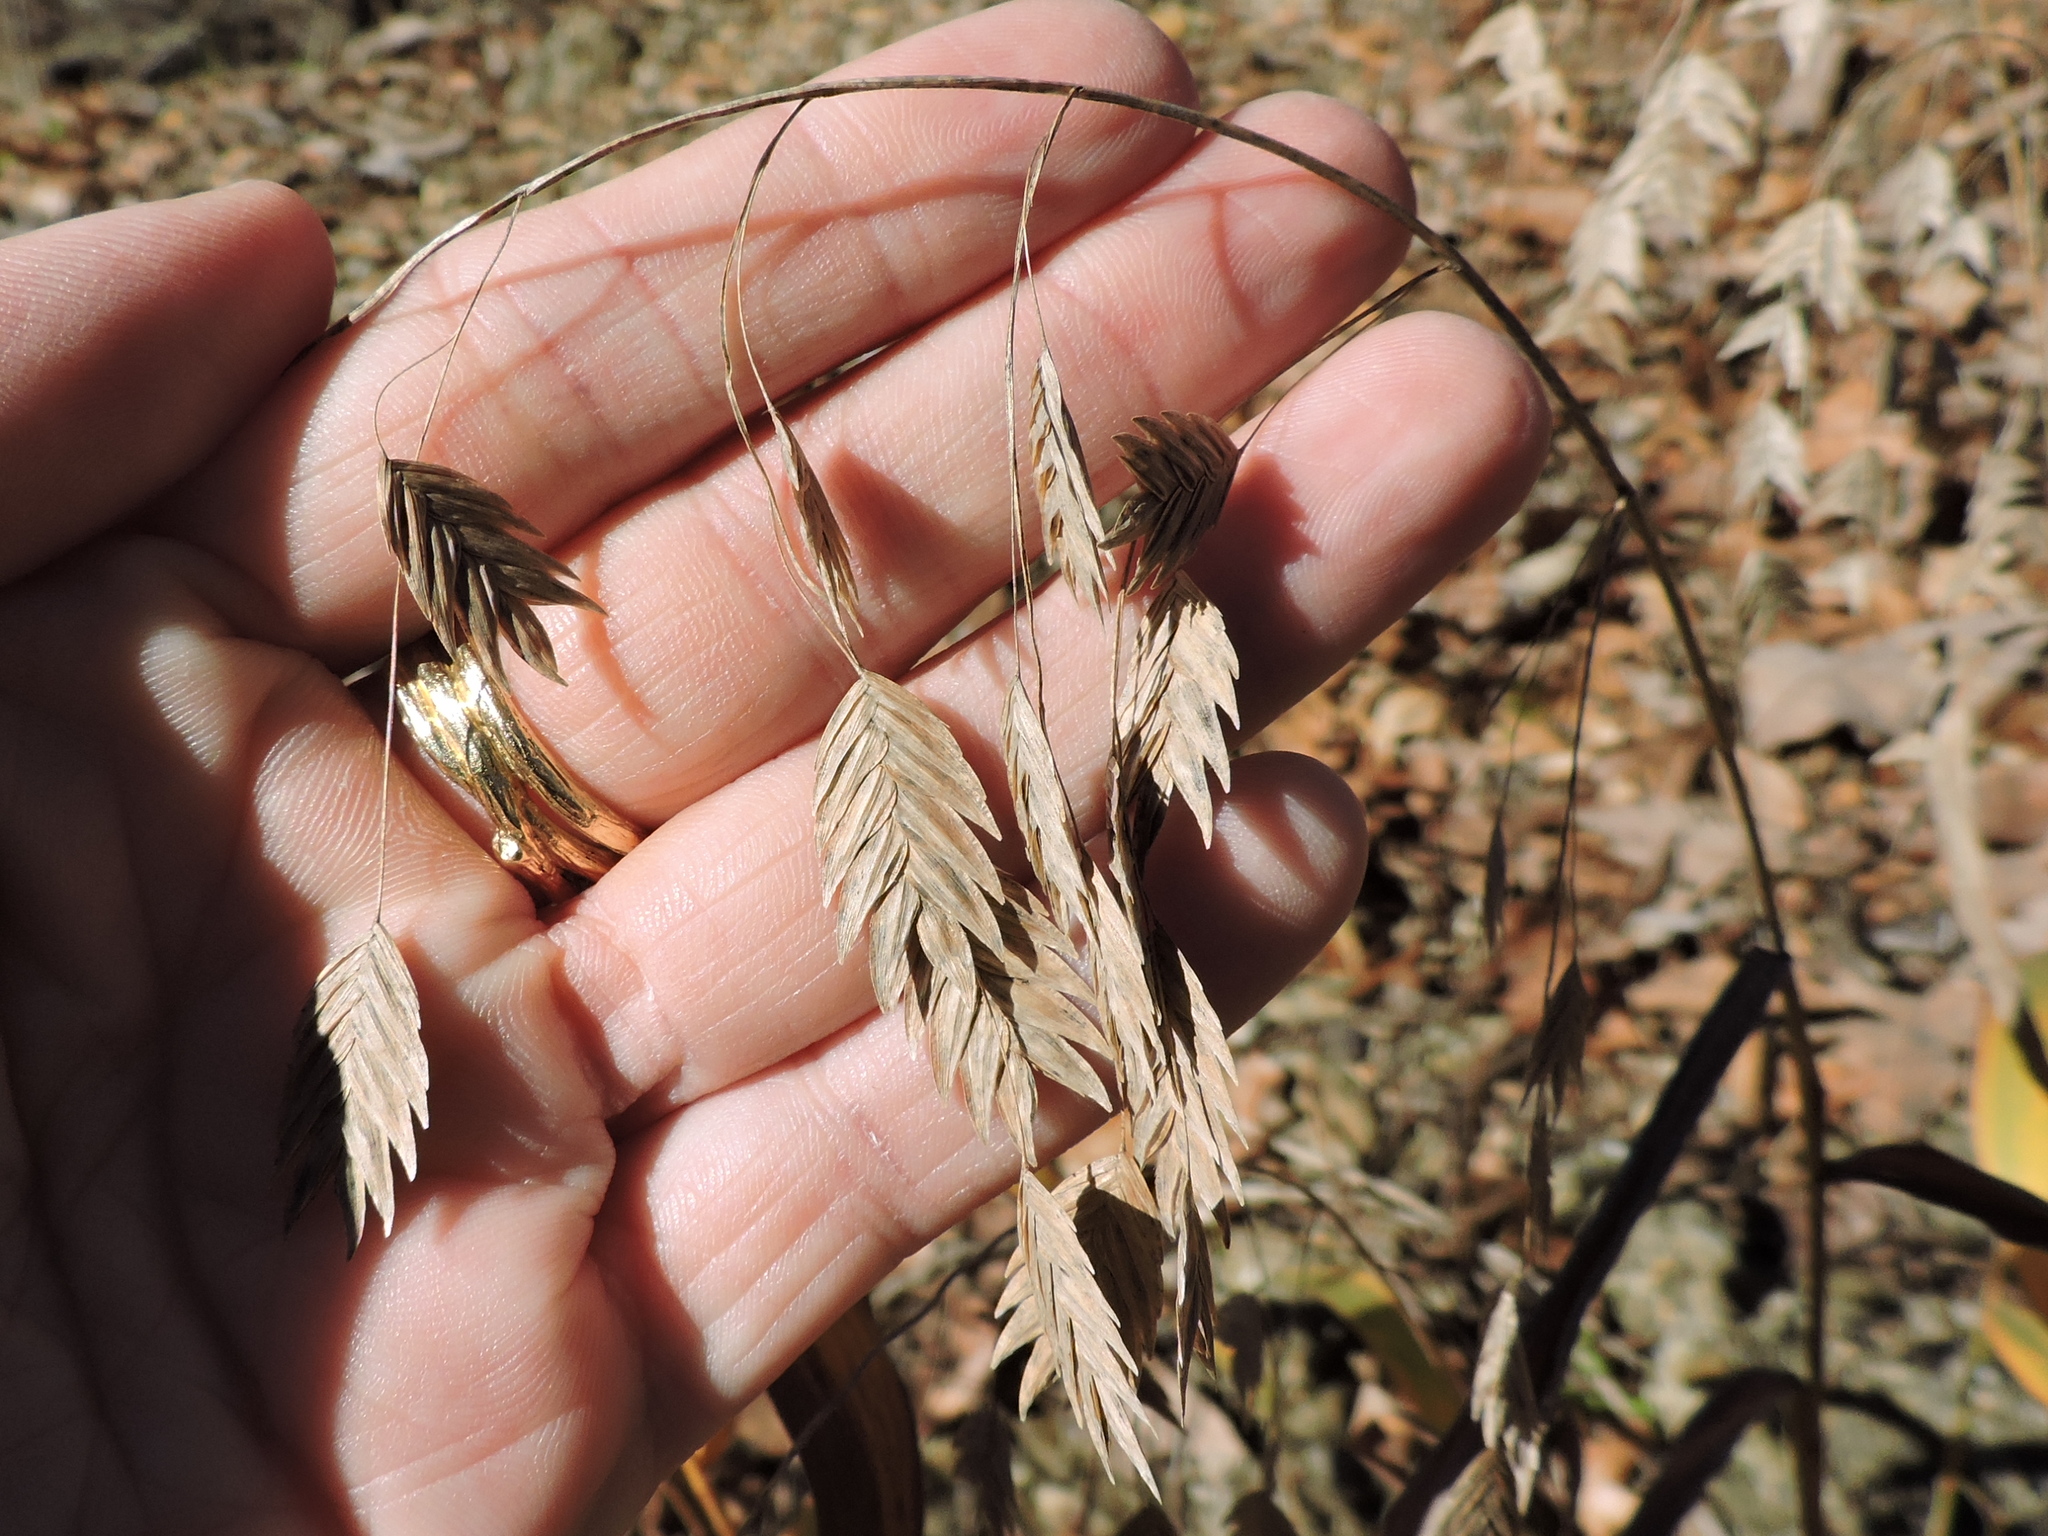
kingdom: Plantae
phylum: Tracheophyta
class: Liliopsida
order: Poales
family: Poaceae
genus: Chasmanthium
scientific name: Chasmanthium latifolium
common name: Broad-leaved chasmanthium
